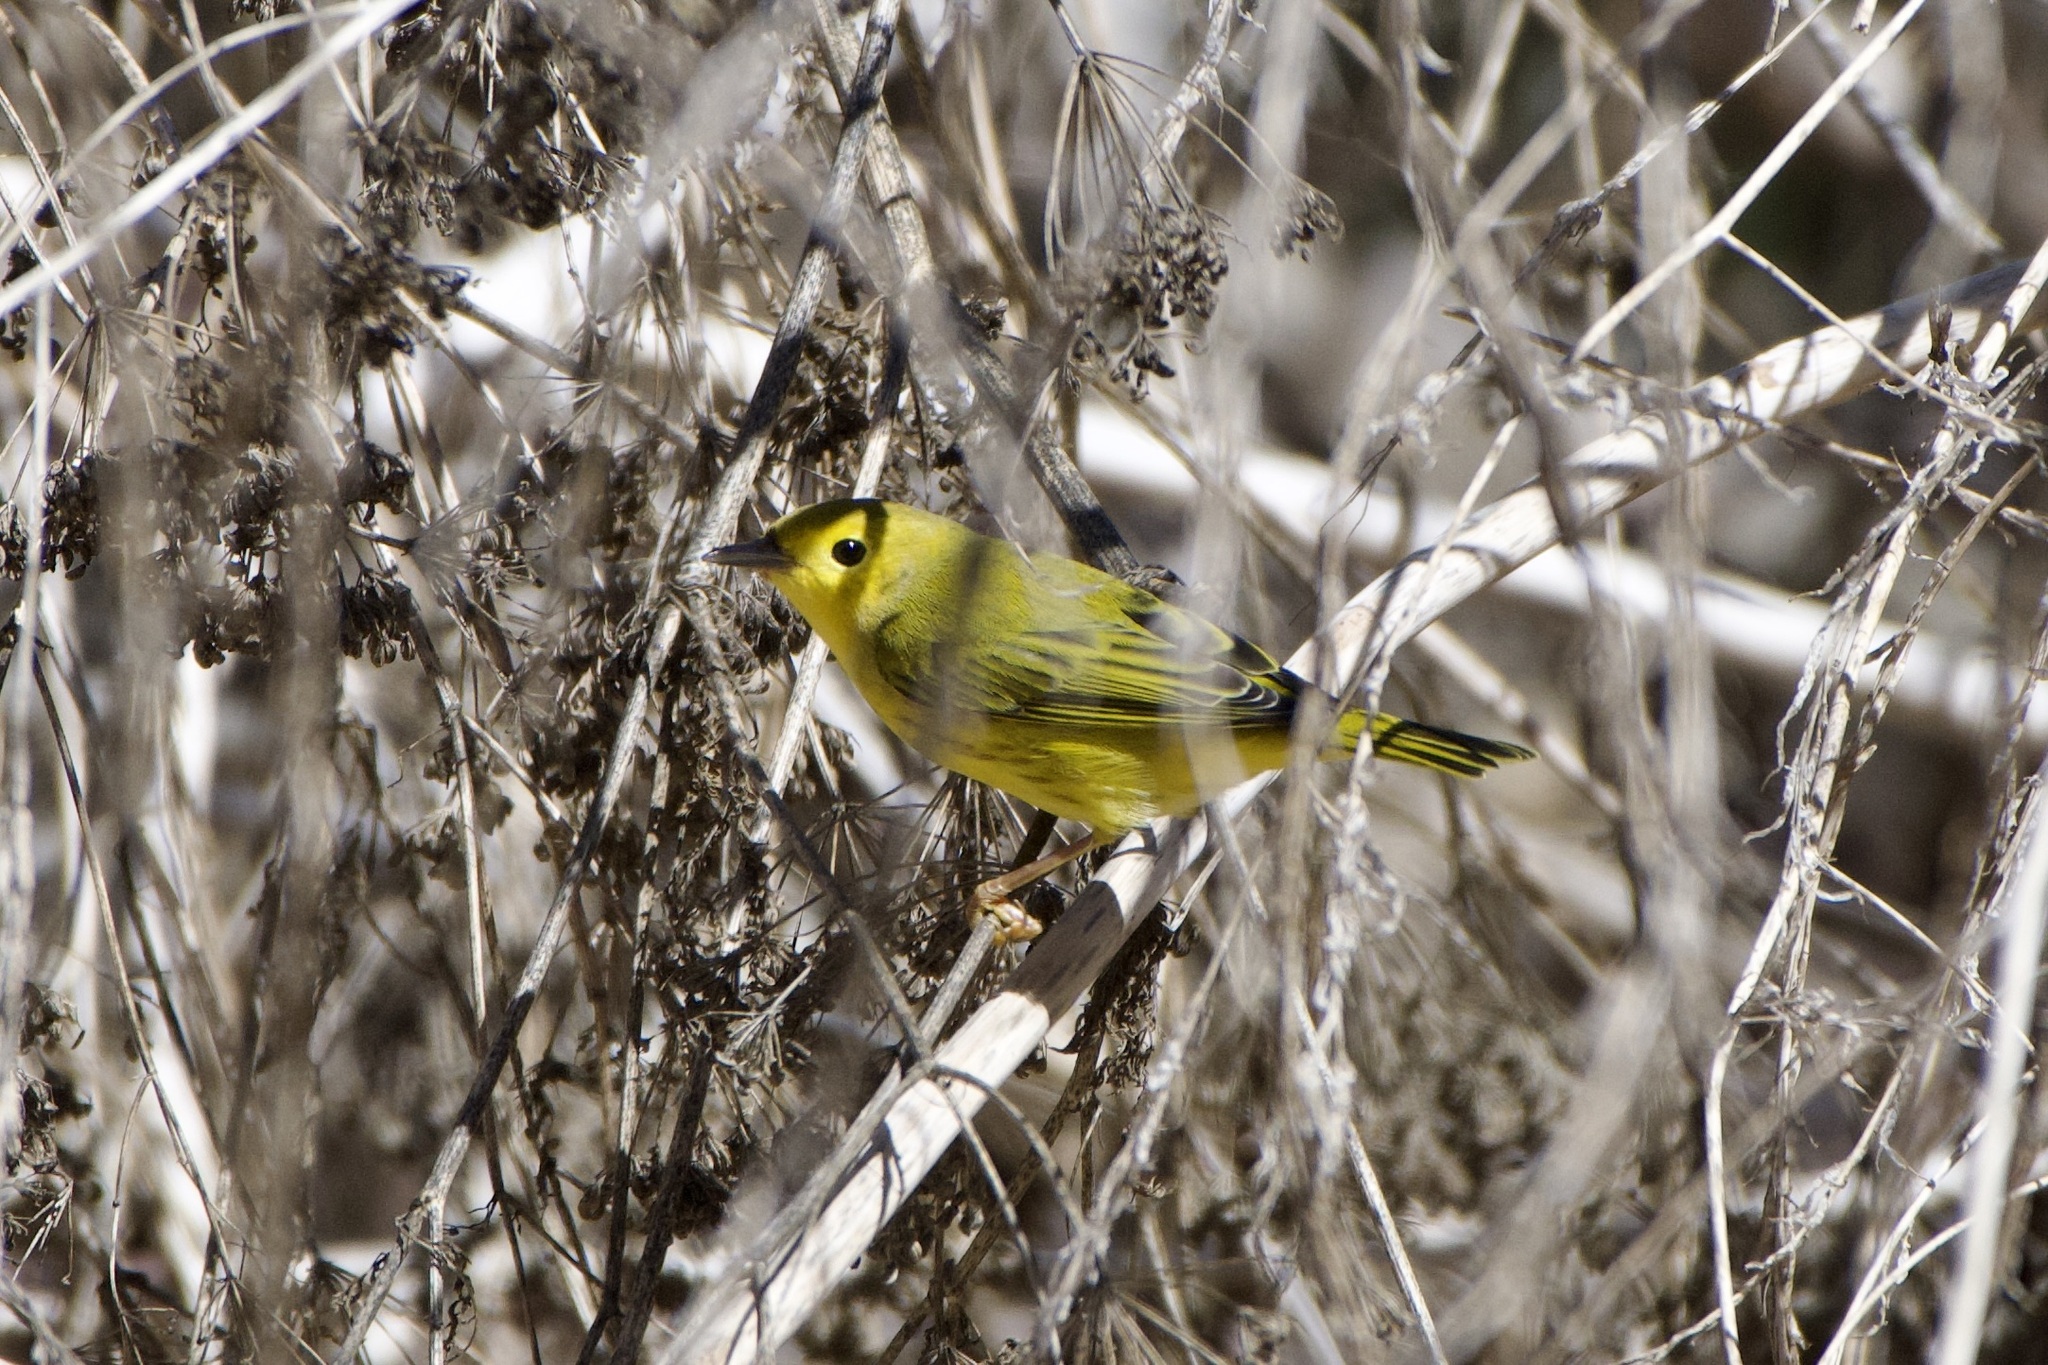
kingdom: Animalia
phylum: Chordata
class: Aves
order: Passeriformes
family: Parulidae
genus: Setophaga
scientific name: Setophaga petechia
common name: Yellow warbler
